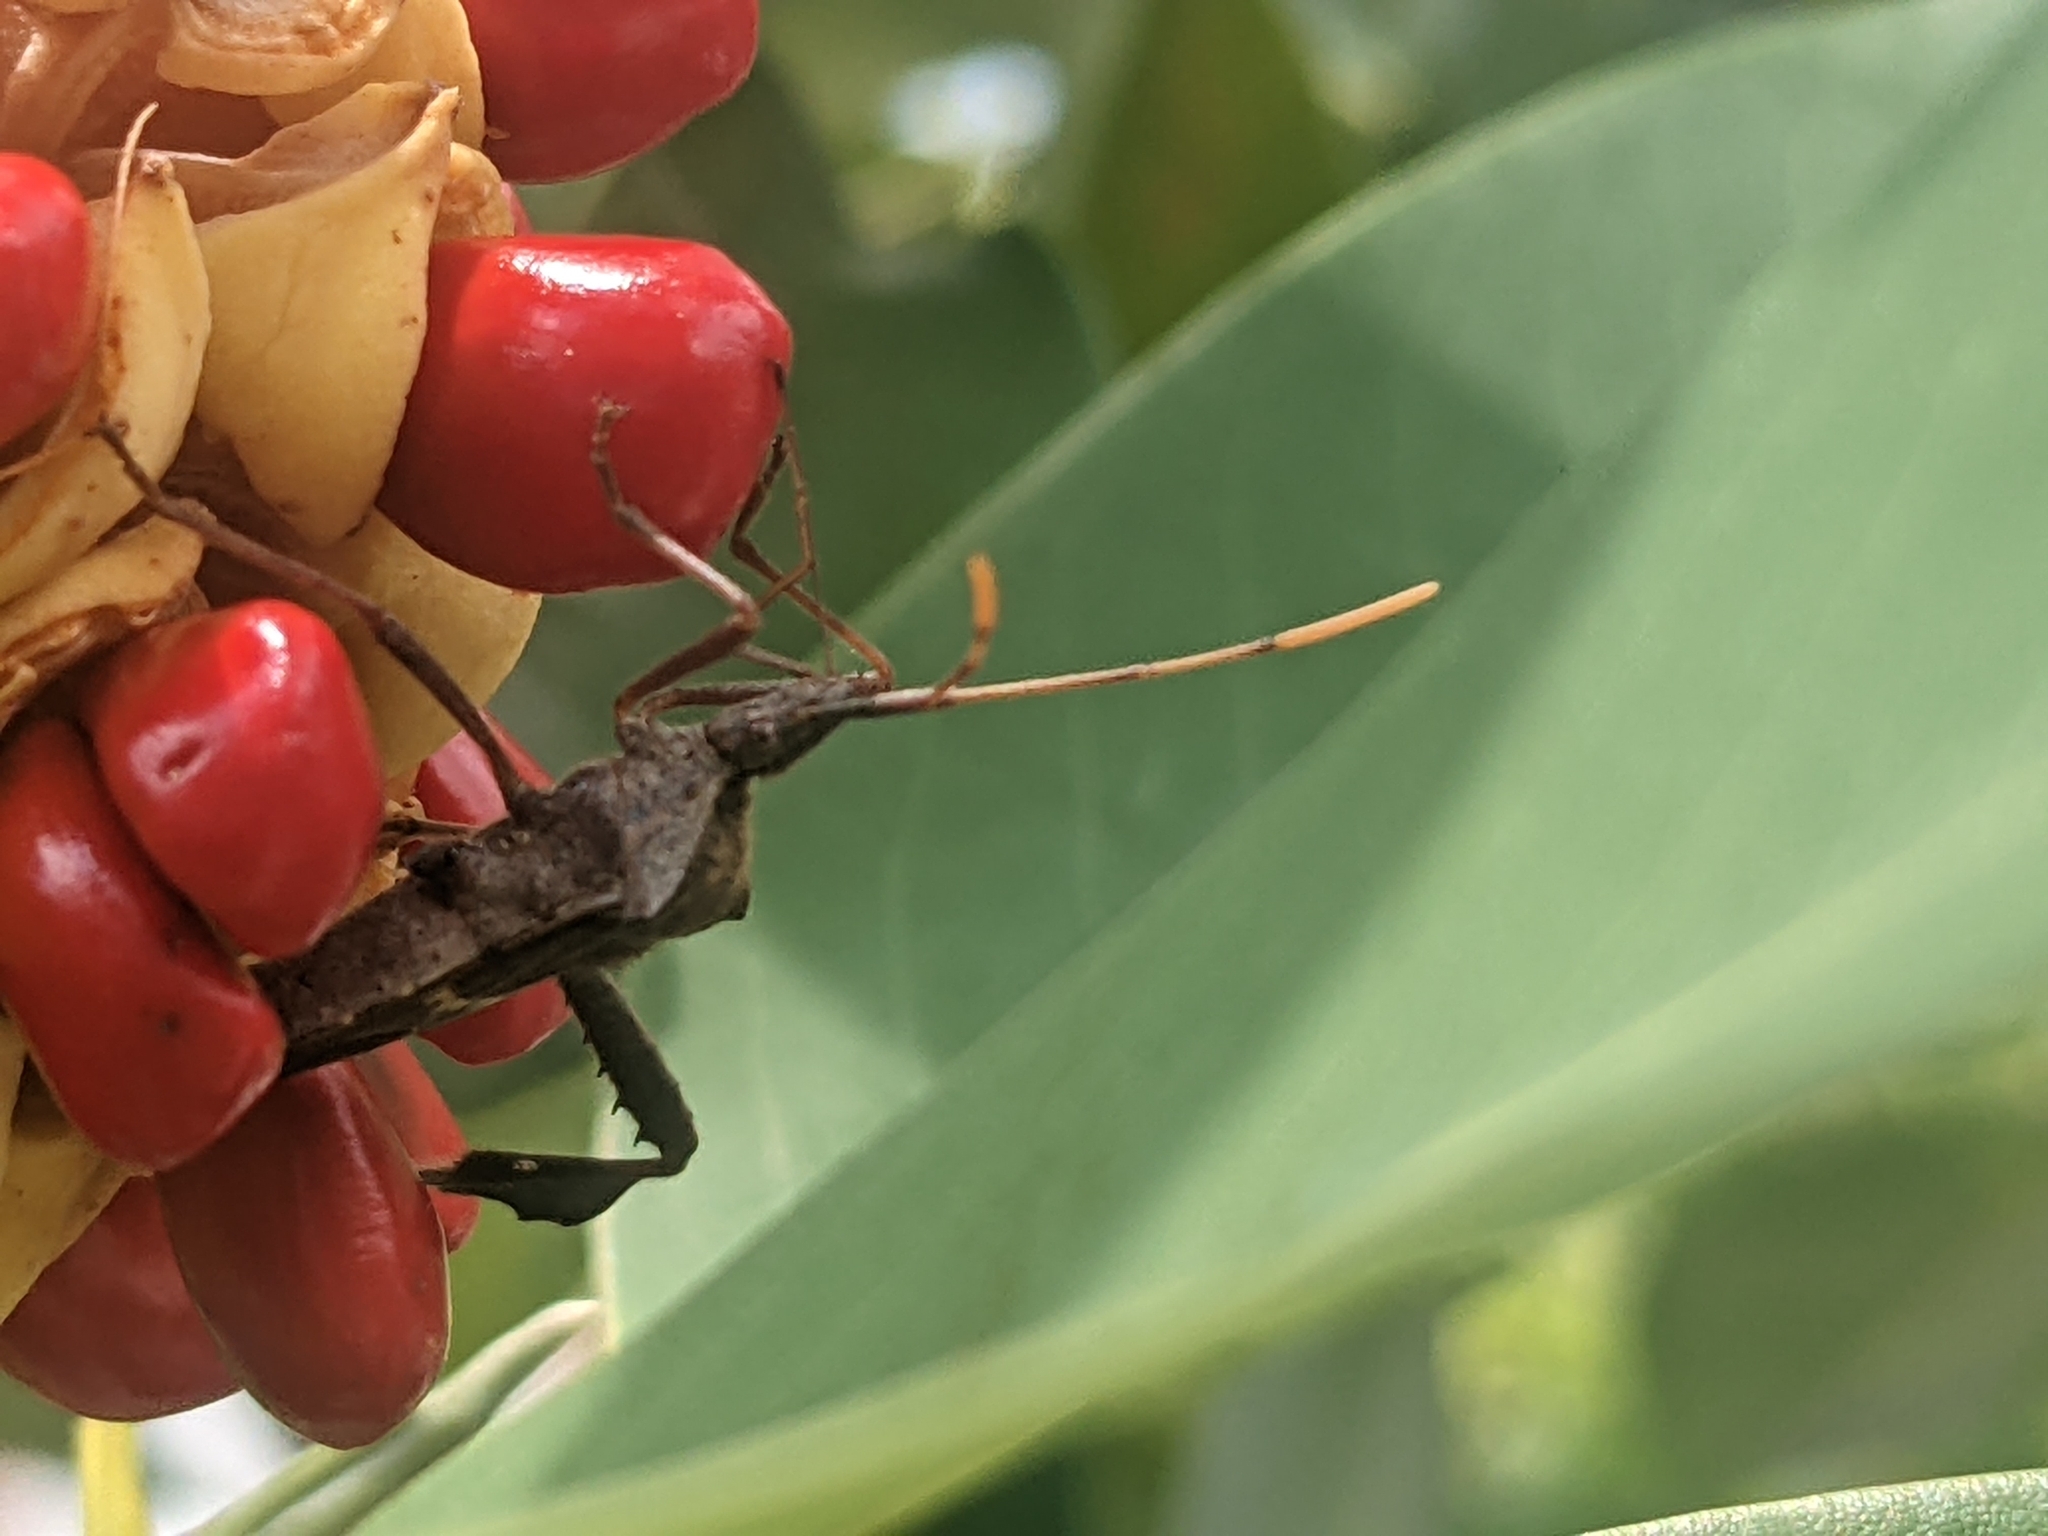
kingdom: Animalia
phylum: Arthropoda
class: Insecta
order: Hemiptera
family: Coreidae
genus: Leptoglossus
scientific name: Leptoglossus zonatus
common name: Large-legged bug
